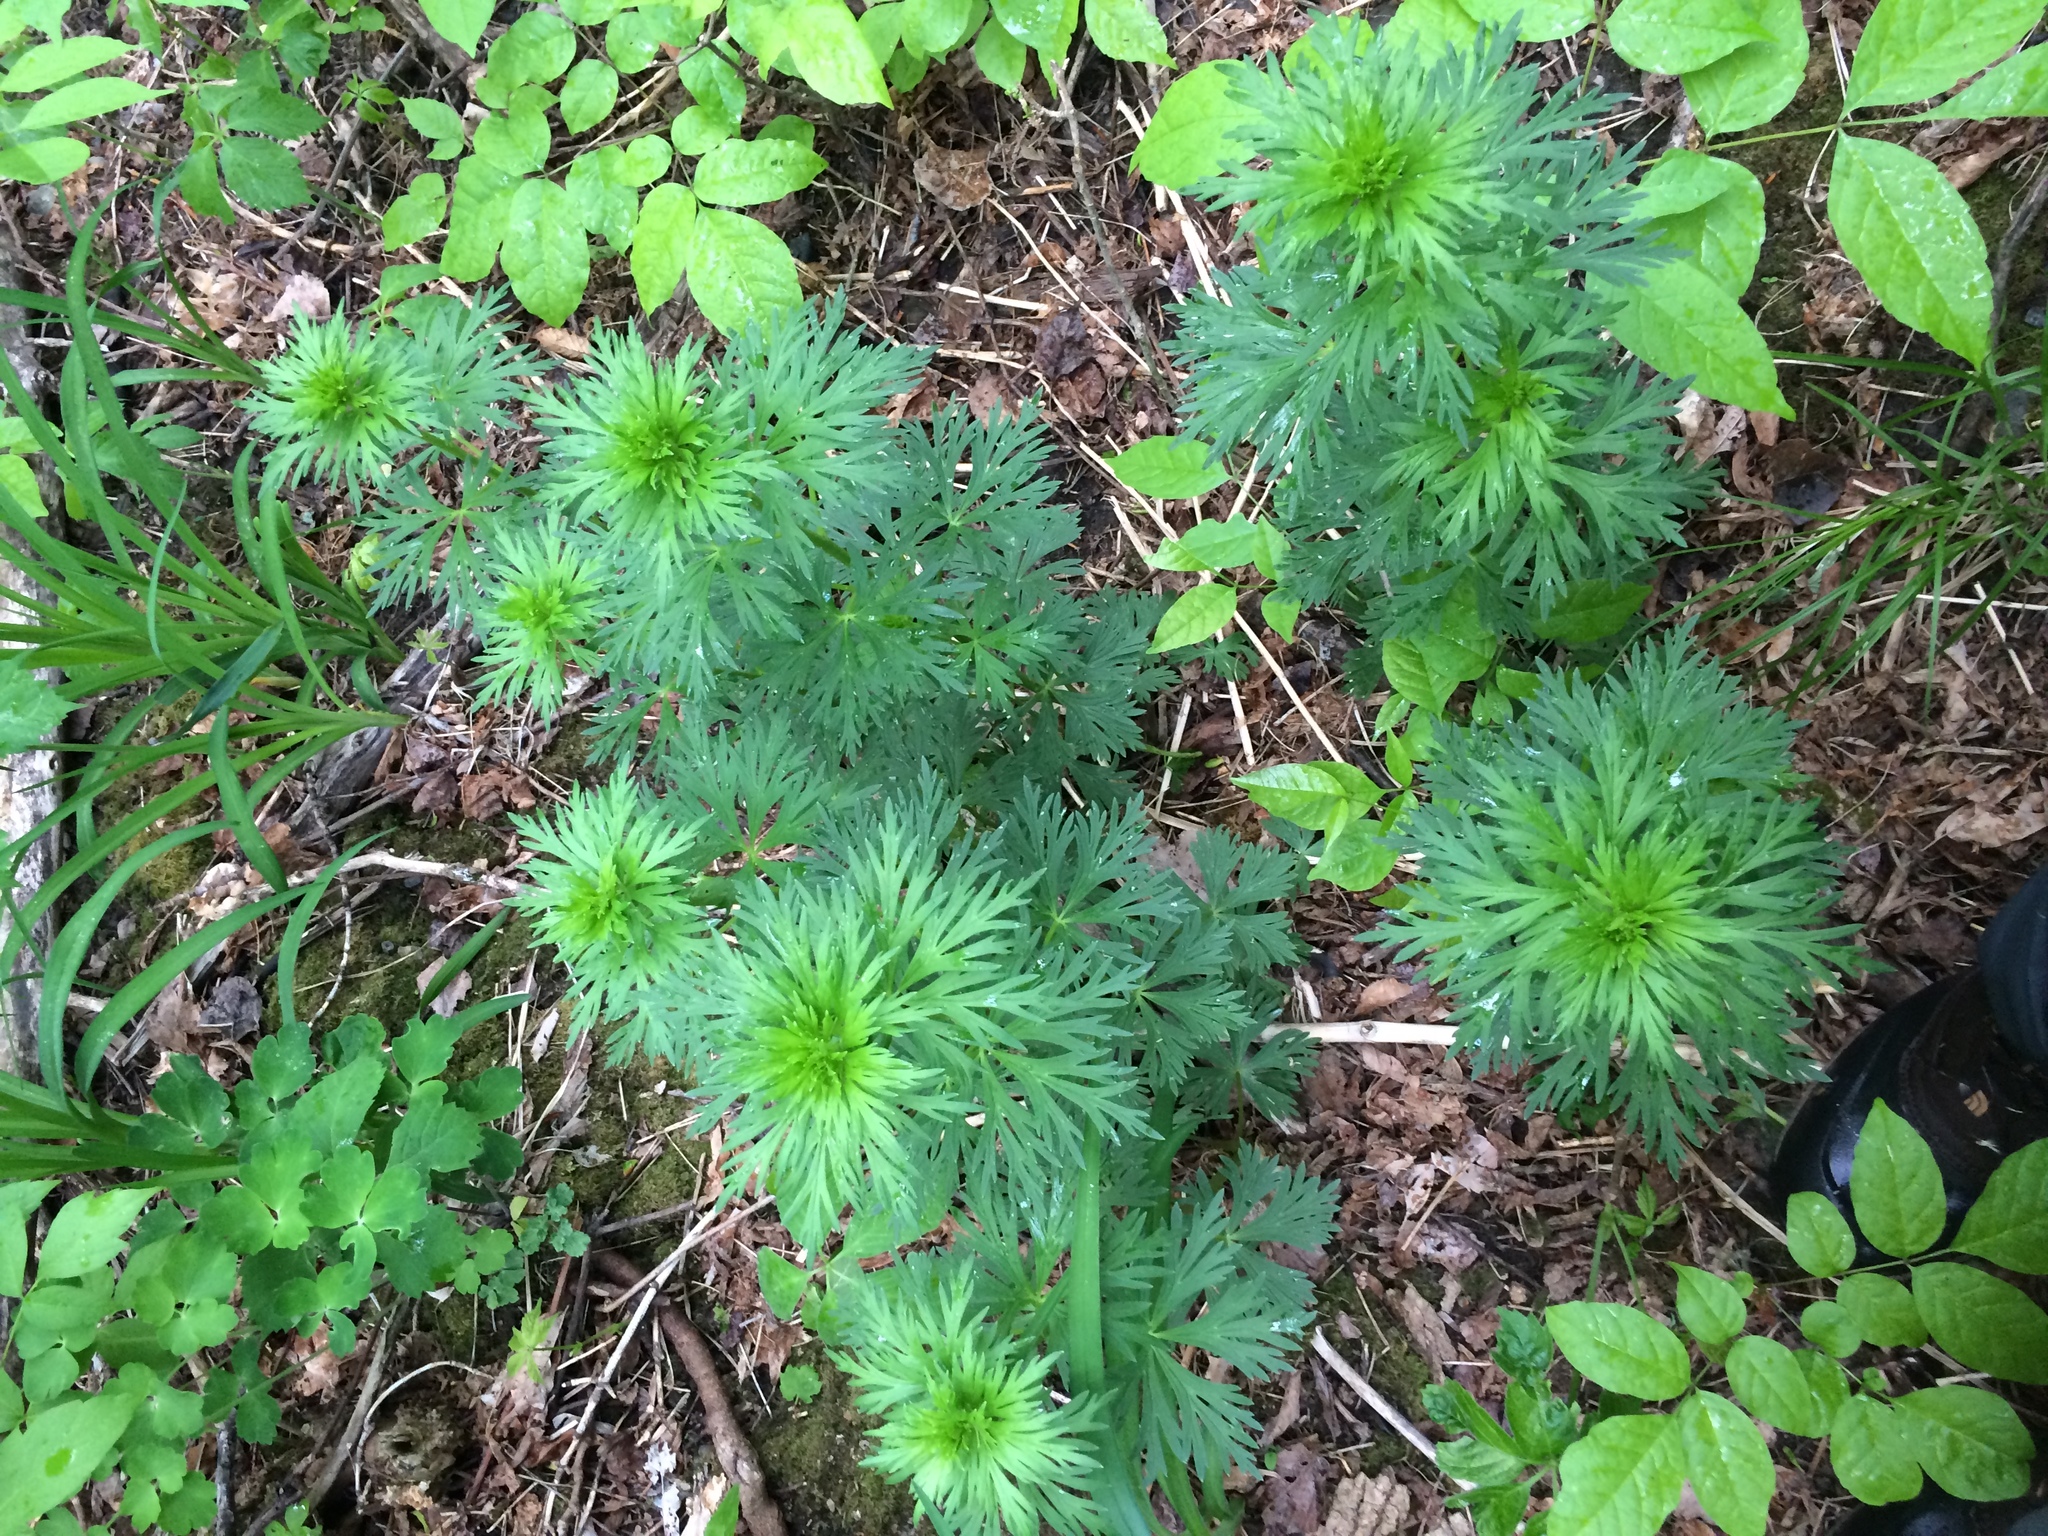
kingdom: Plantae
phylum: Tracheophyta
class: Magnoliopsida
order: Ranunculales
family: Ranunculaceae
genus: Aconitum
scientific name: Aconitum napellus
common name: Garden monkshood
